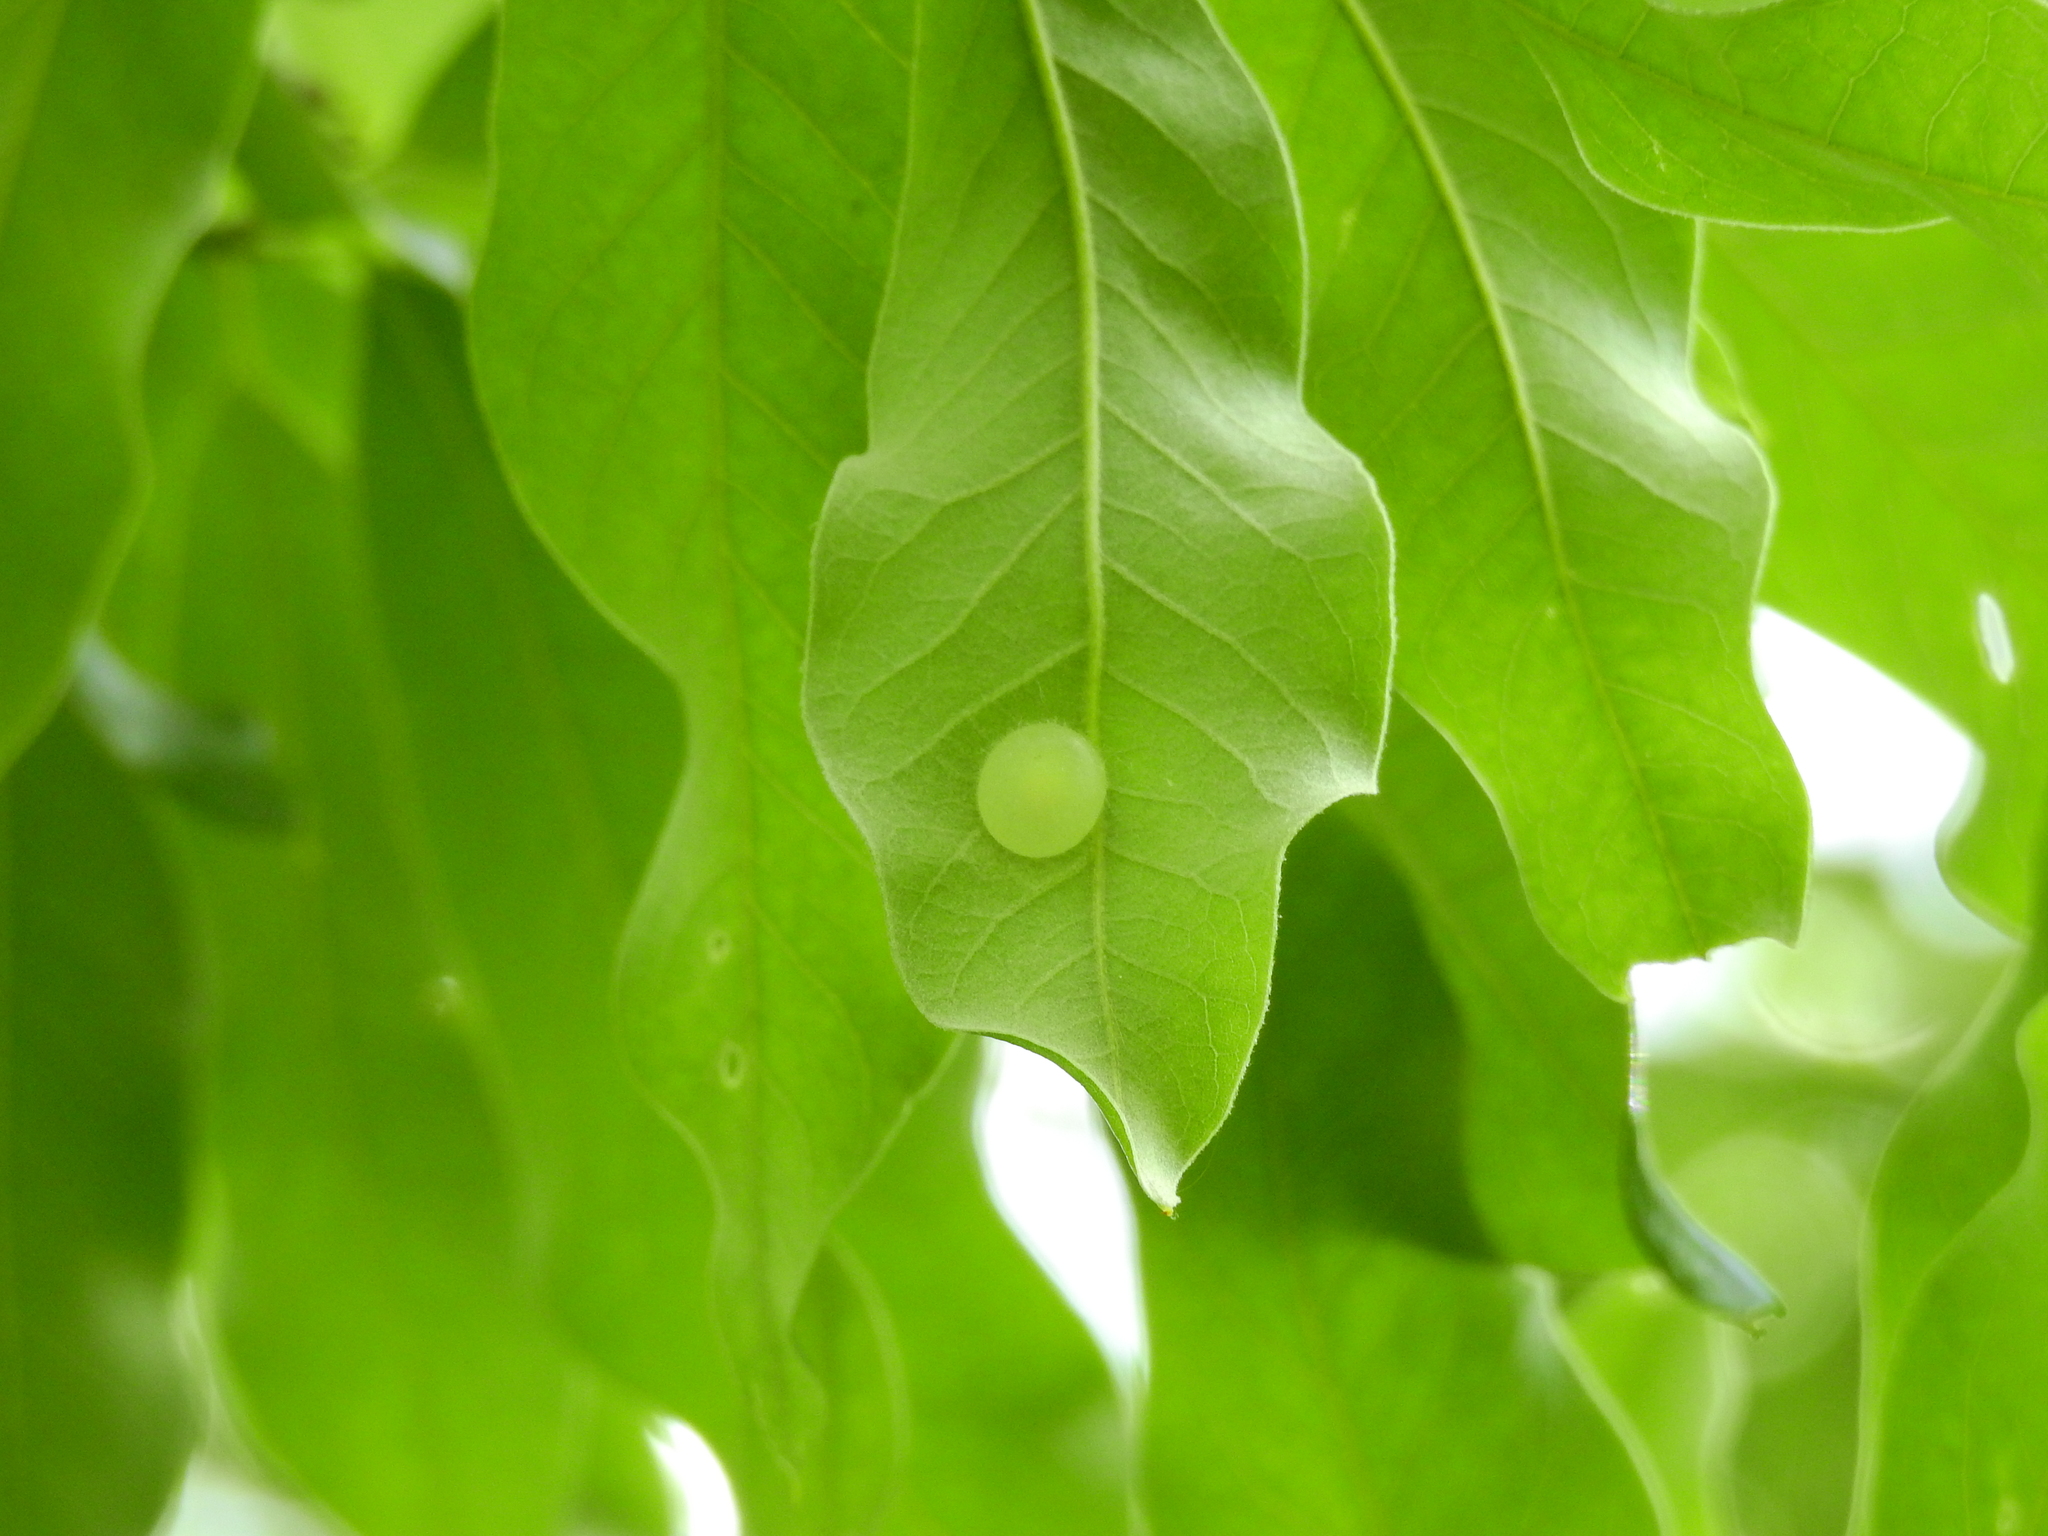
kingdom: Animalia
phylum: Arthropoda
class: Insecta
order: Hymenoptera
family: Cynipidae
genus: Amphibolips
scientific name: Amphibolips
